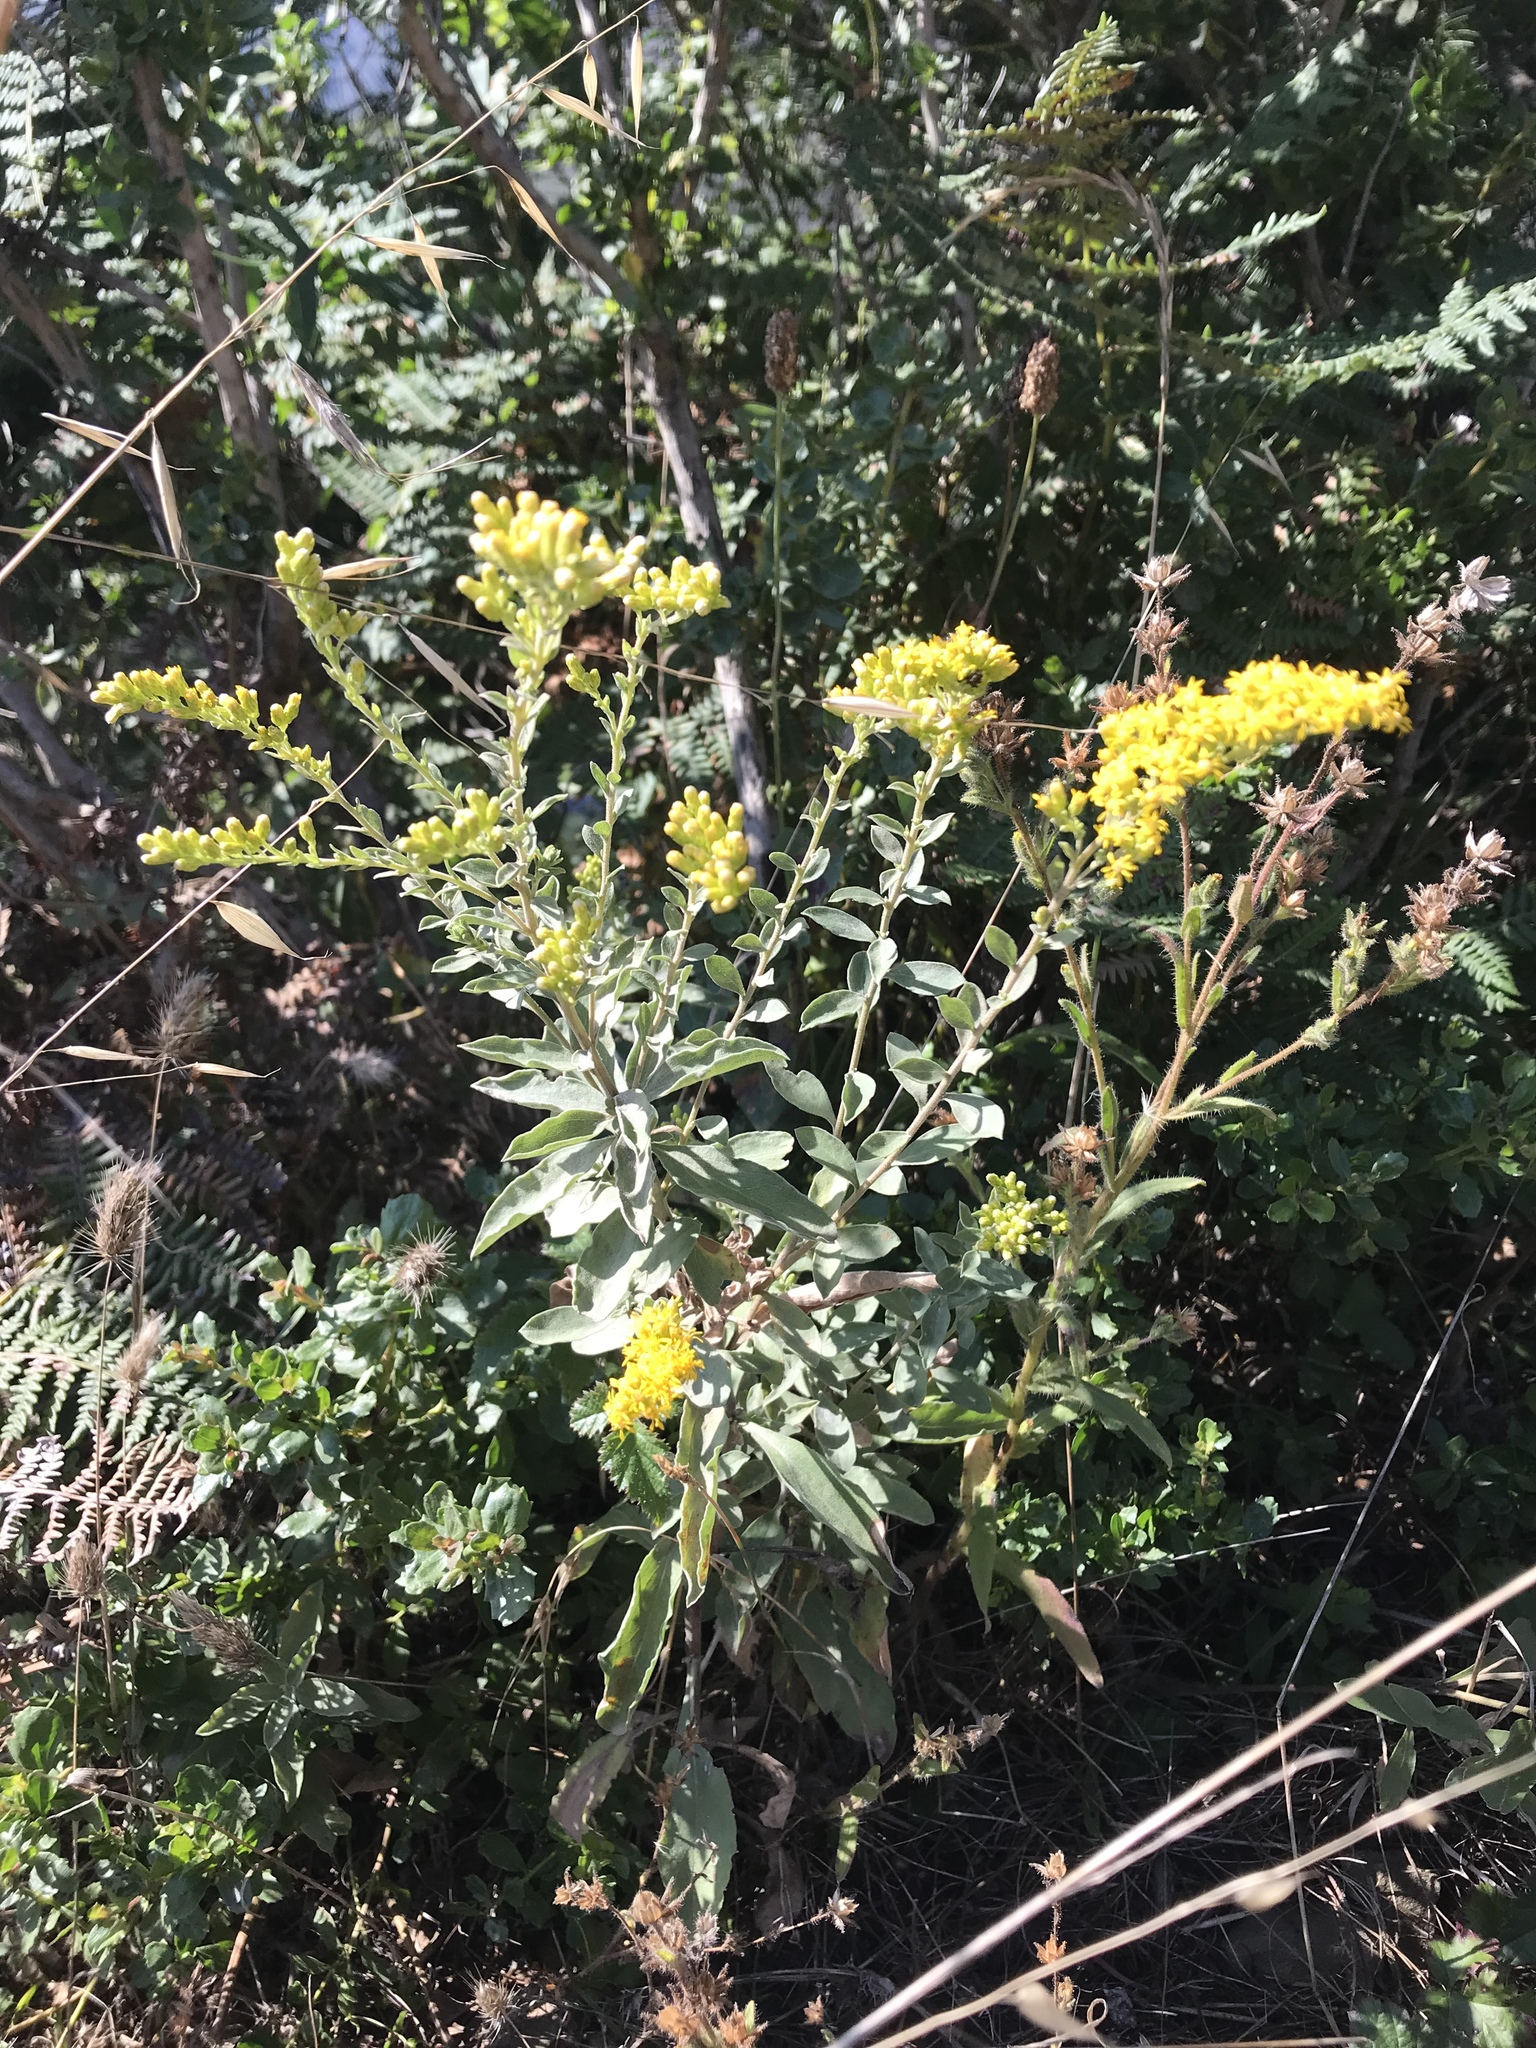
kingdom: Plantae
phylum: Tracheophyta
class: Magnoliopsida
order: Asterales
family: Asteraceae
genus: Solidago
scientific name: Solidago velutina
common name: Three-nerve goldenrod
